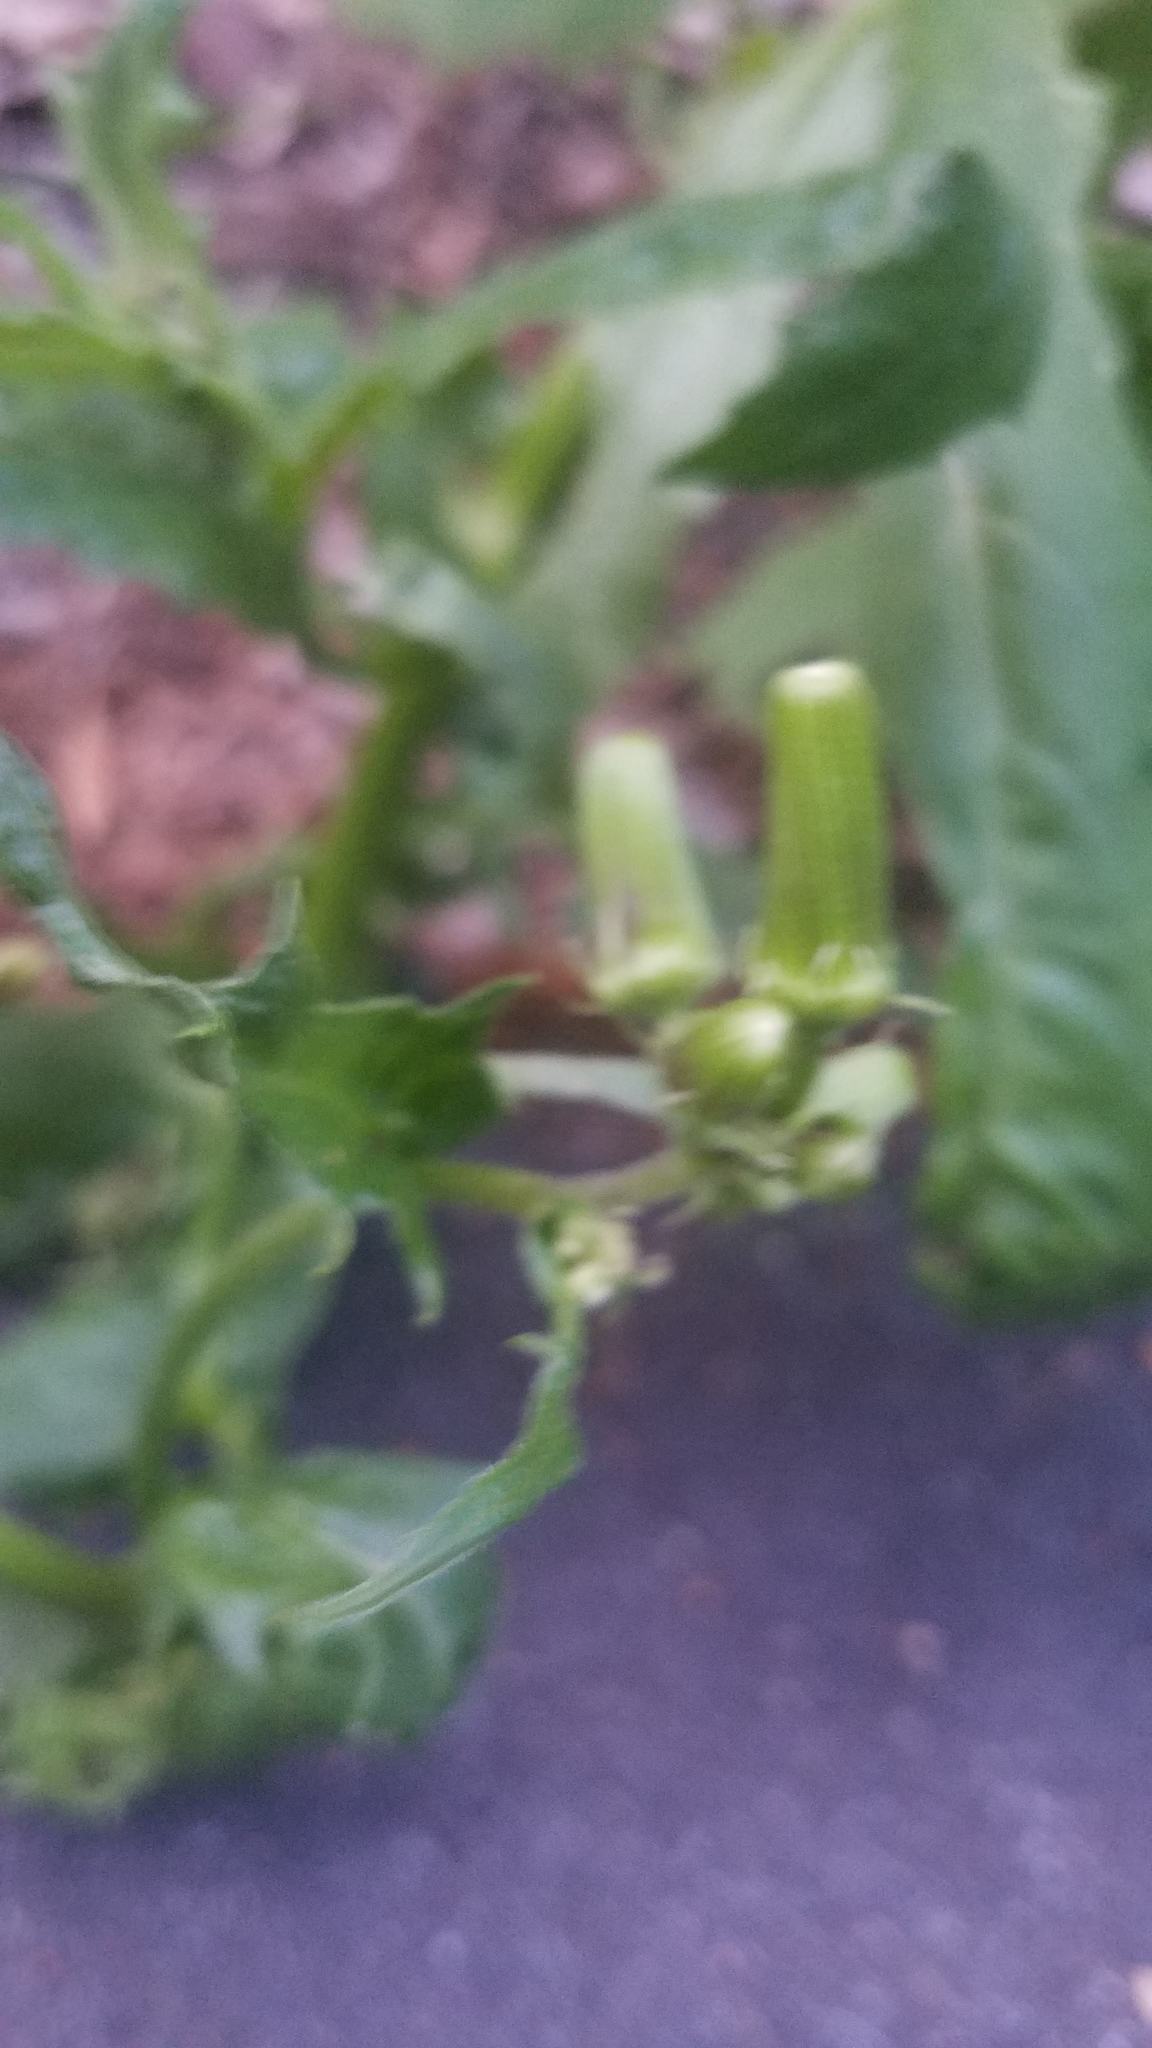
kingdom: Plantae
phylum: Tracheophyta
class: Magnoliopsida
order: Asterales
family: Asteraceae
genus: Erechtites
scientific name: Erechtites hieraciifolius
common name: American burnweed
